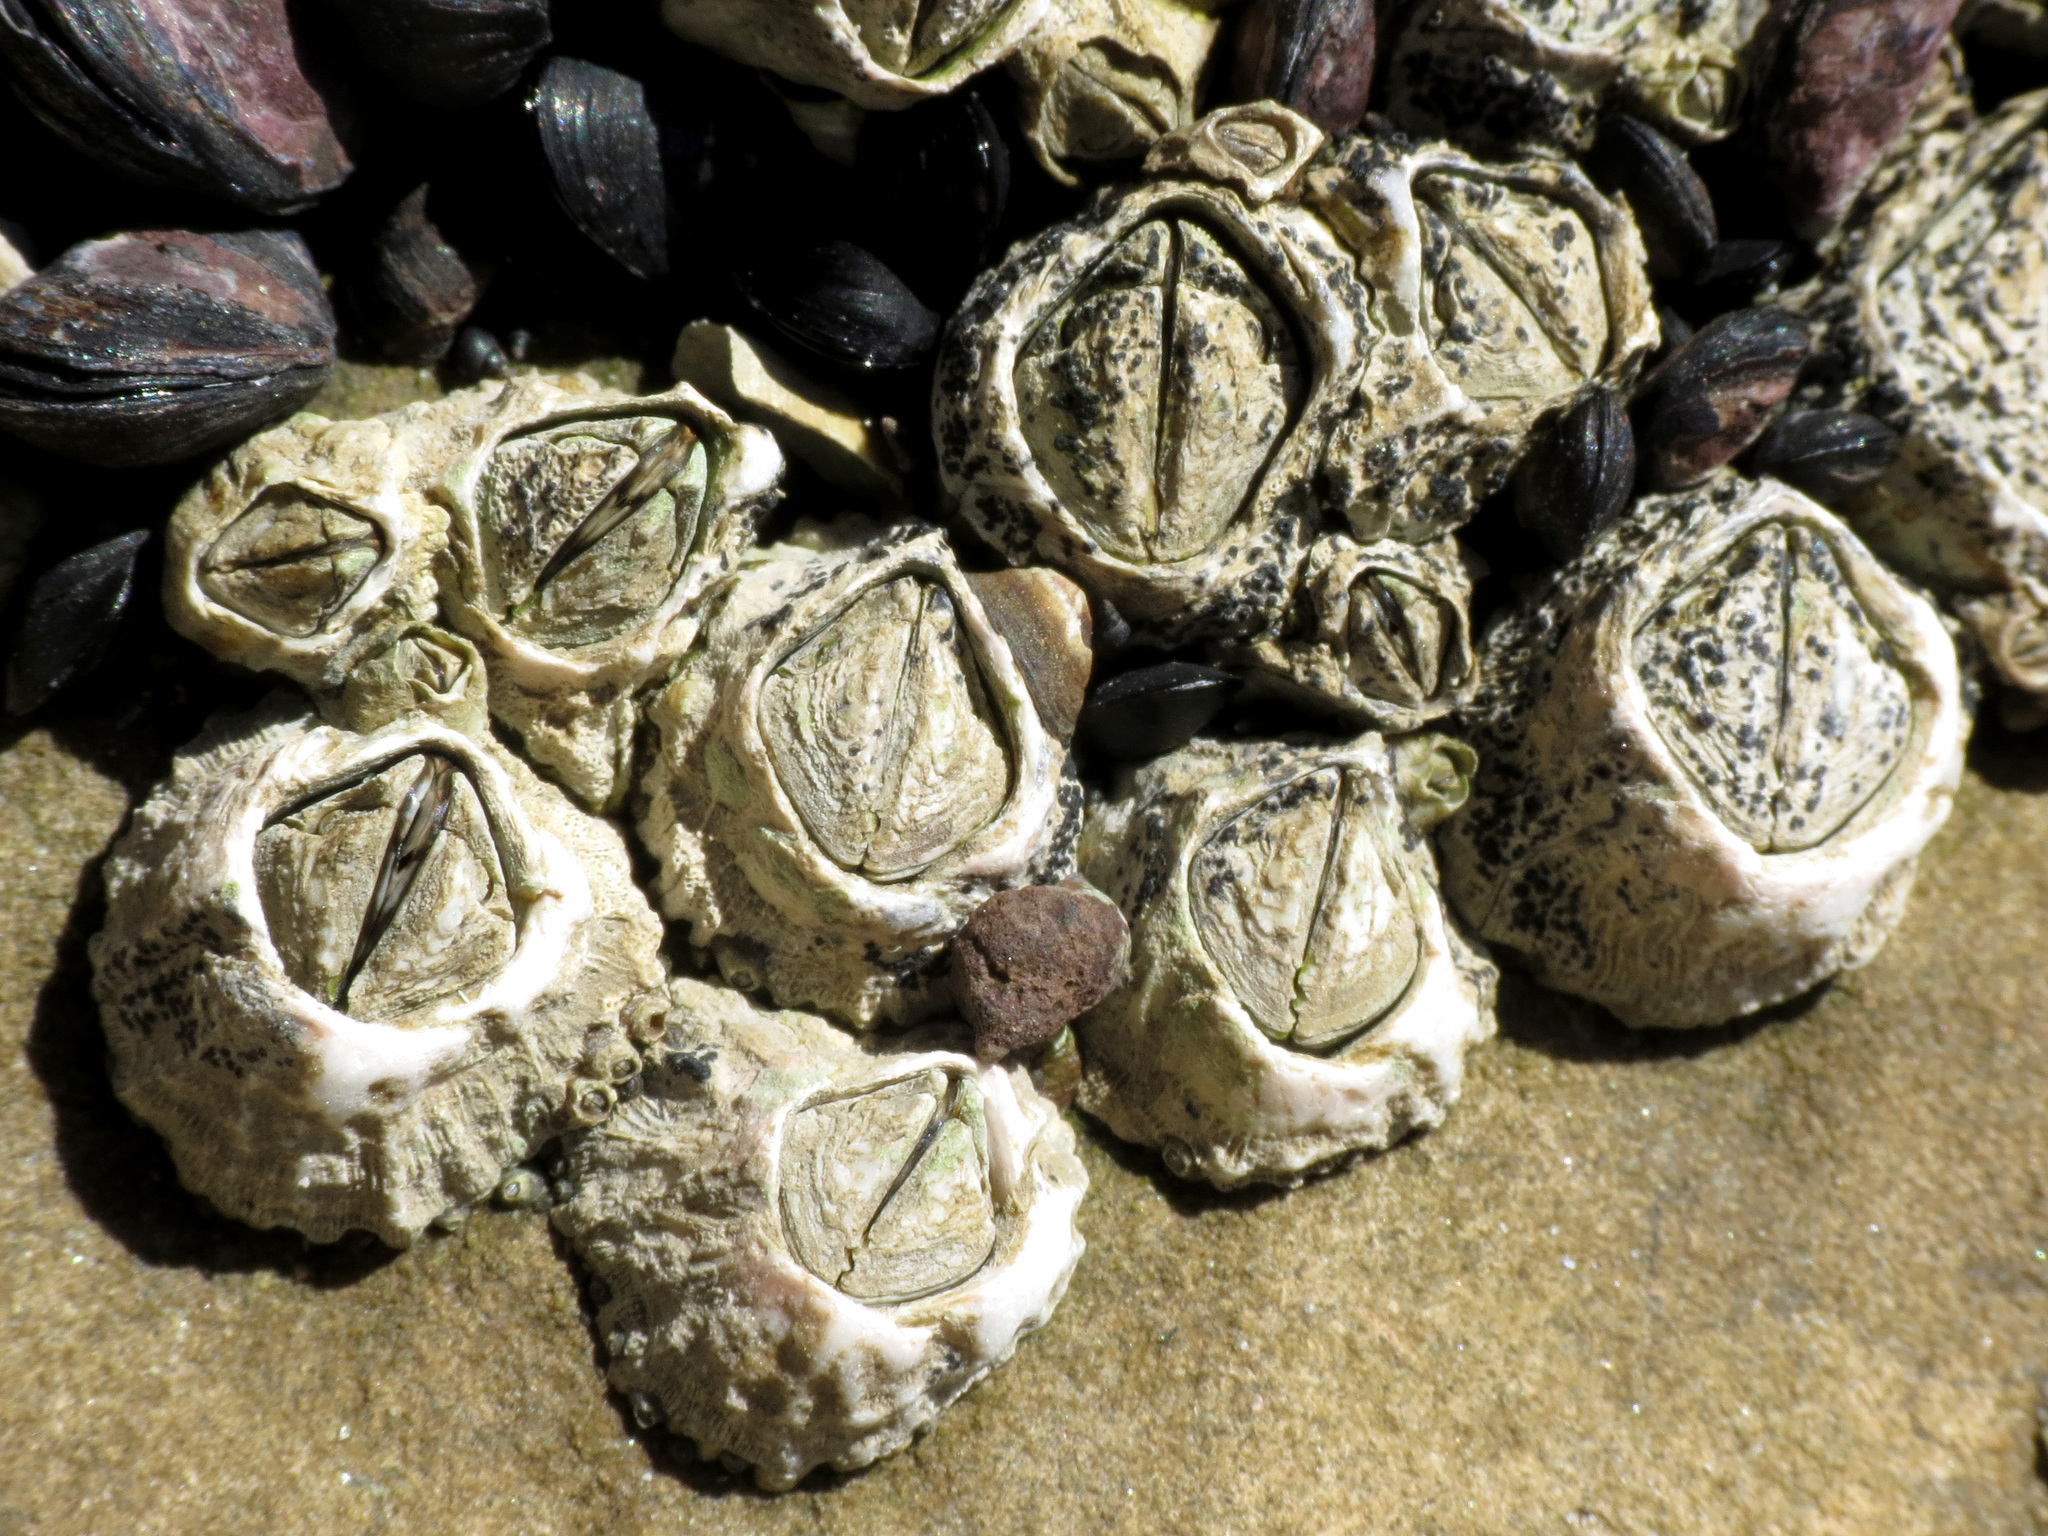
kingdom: Animalia
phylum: Arthropoda
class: Maxillopoda
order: Sessilia
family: Tetraclitidae
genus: Epopella
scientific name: Epopella plicata
